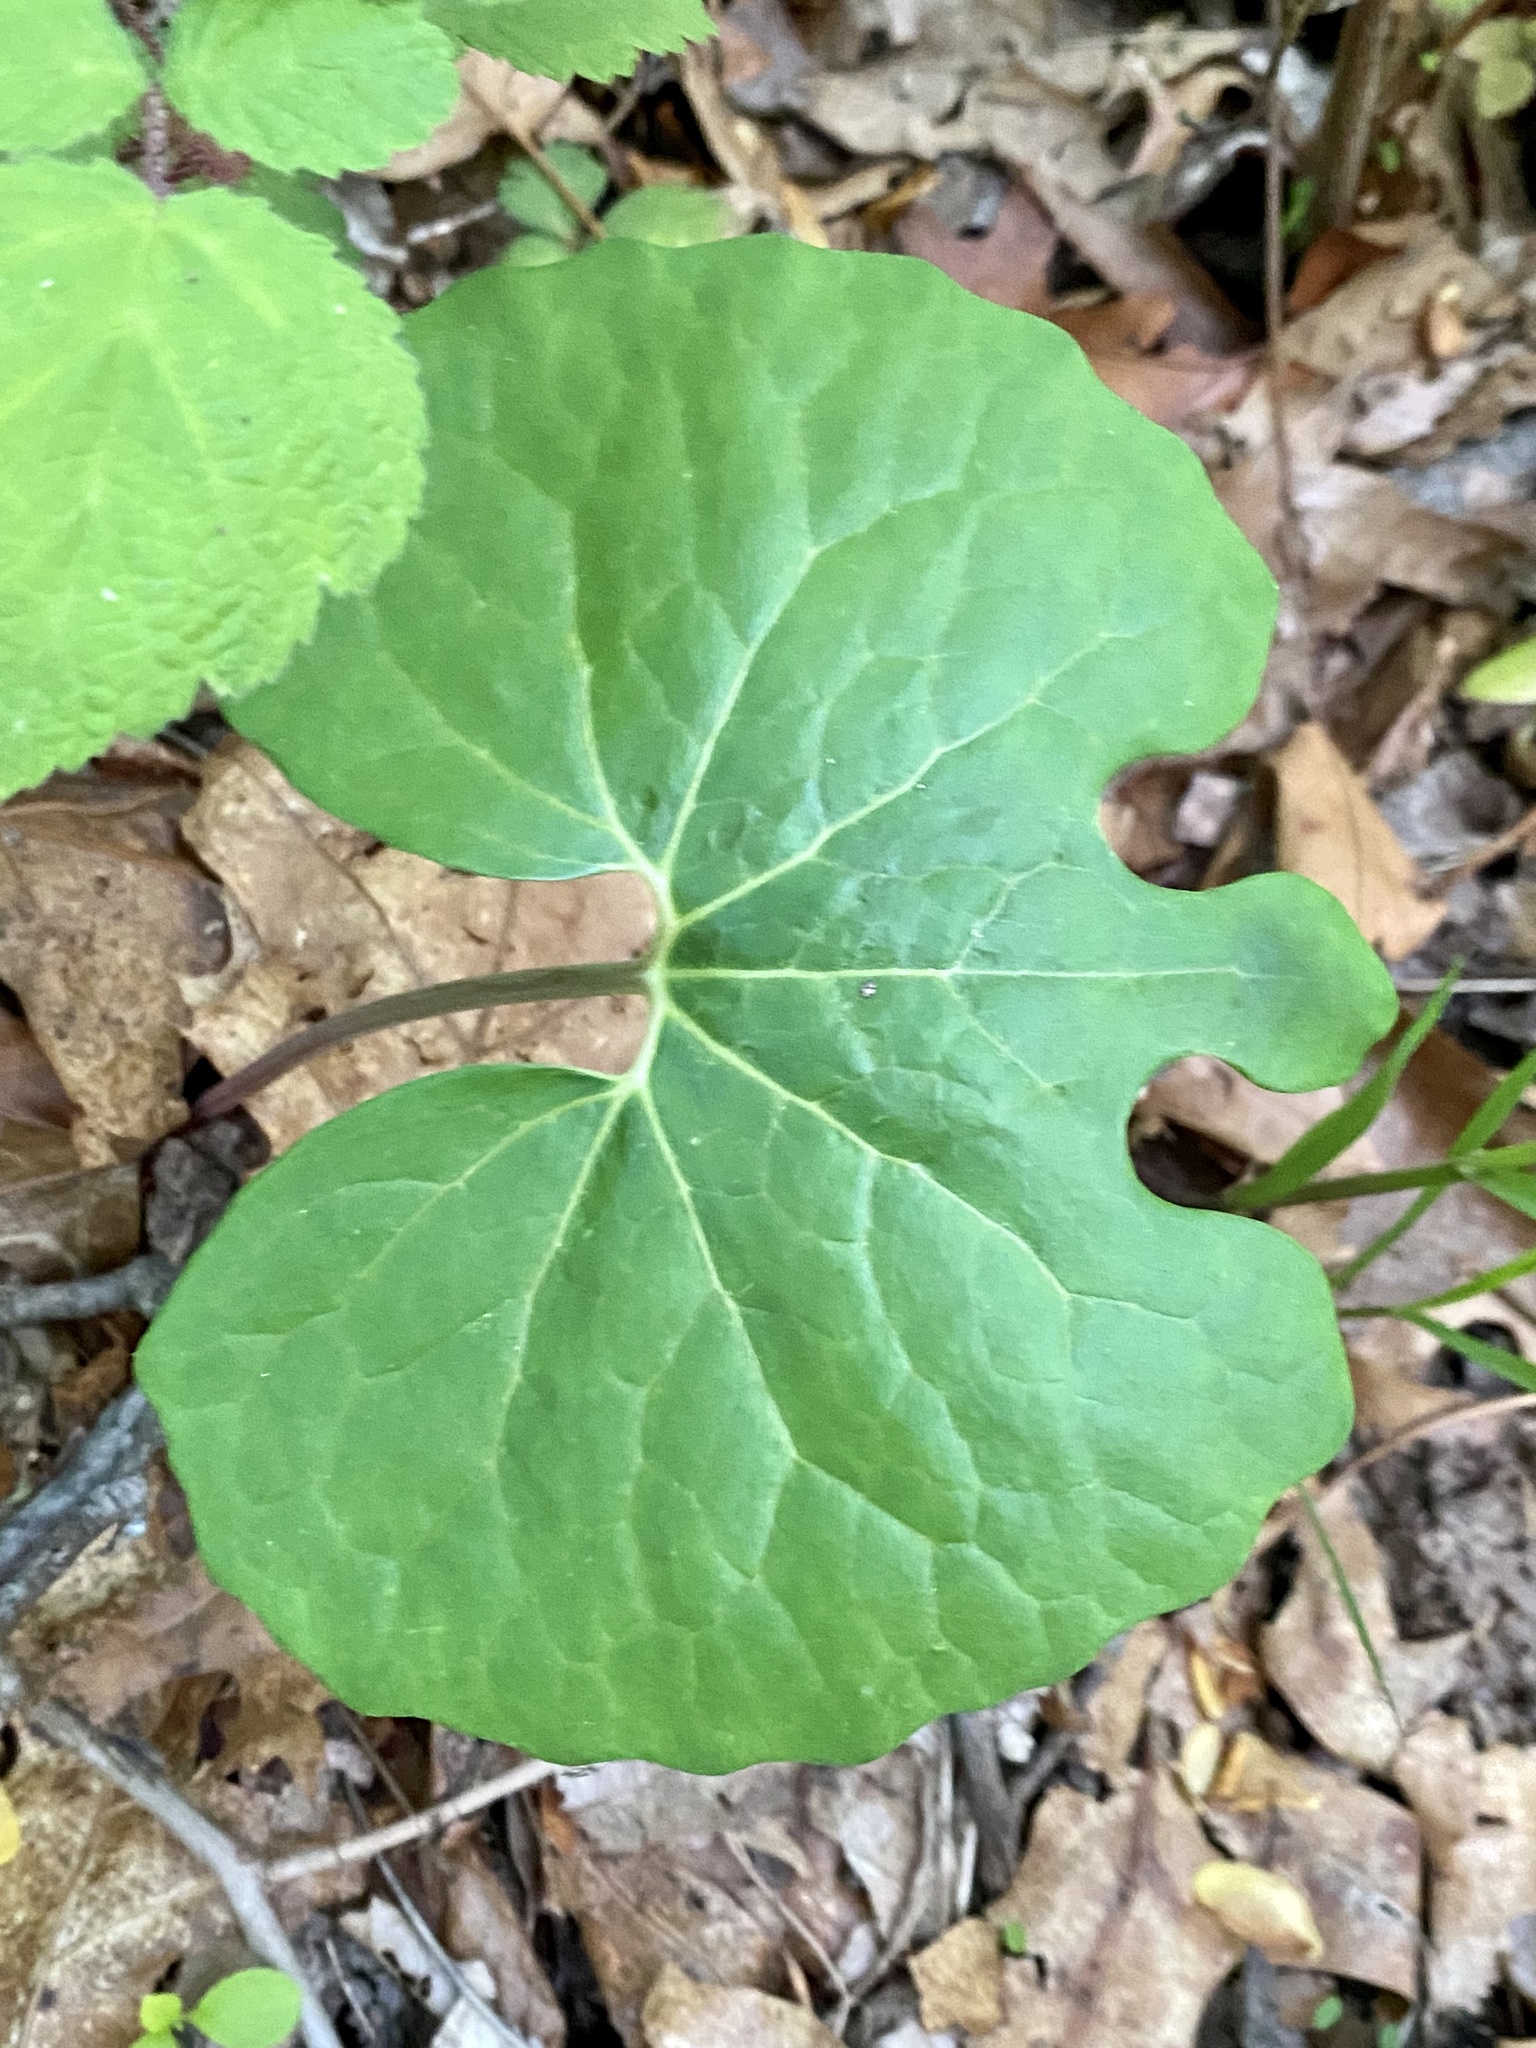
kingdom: Plantae
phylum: Tracheophyta
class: Magnoliopsida
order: Ranunculales
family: Papaveraceae
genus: Sanguinaria
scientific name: Sanguinaria canadensis
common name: Bloodroot
